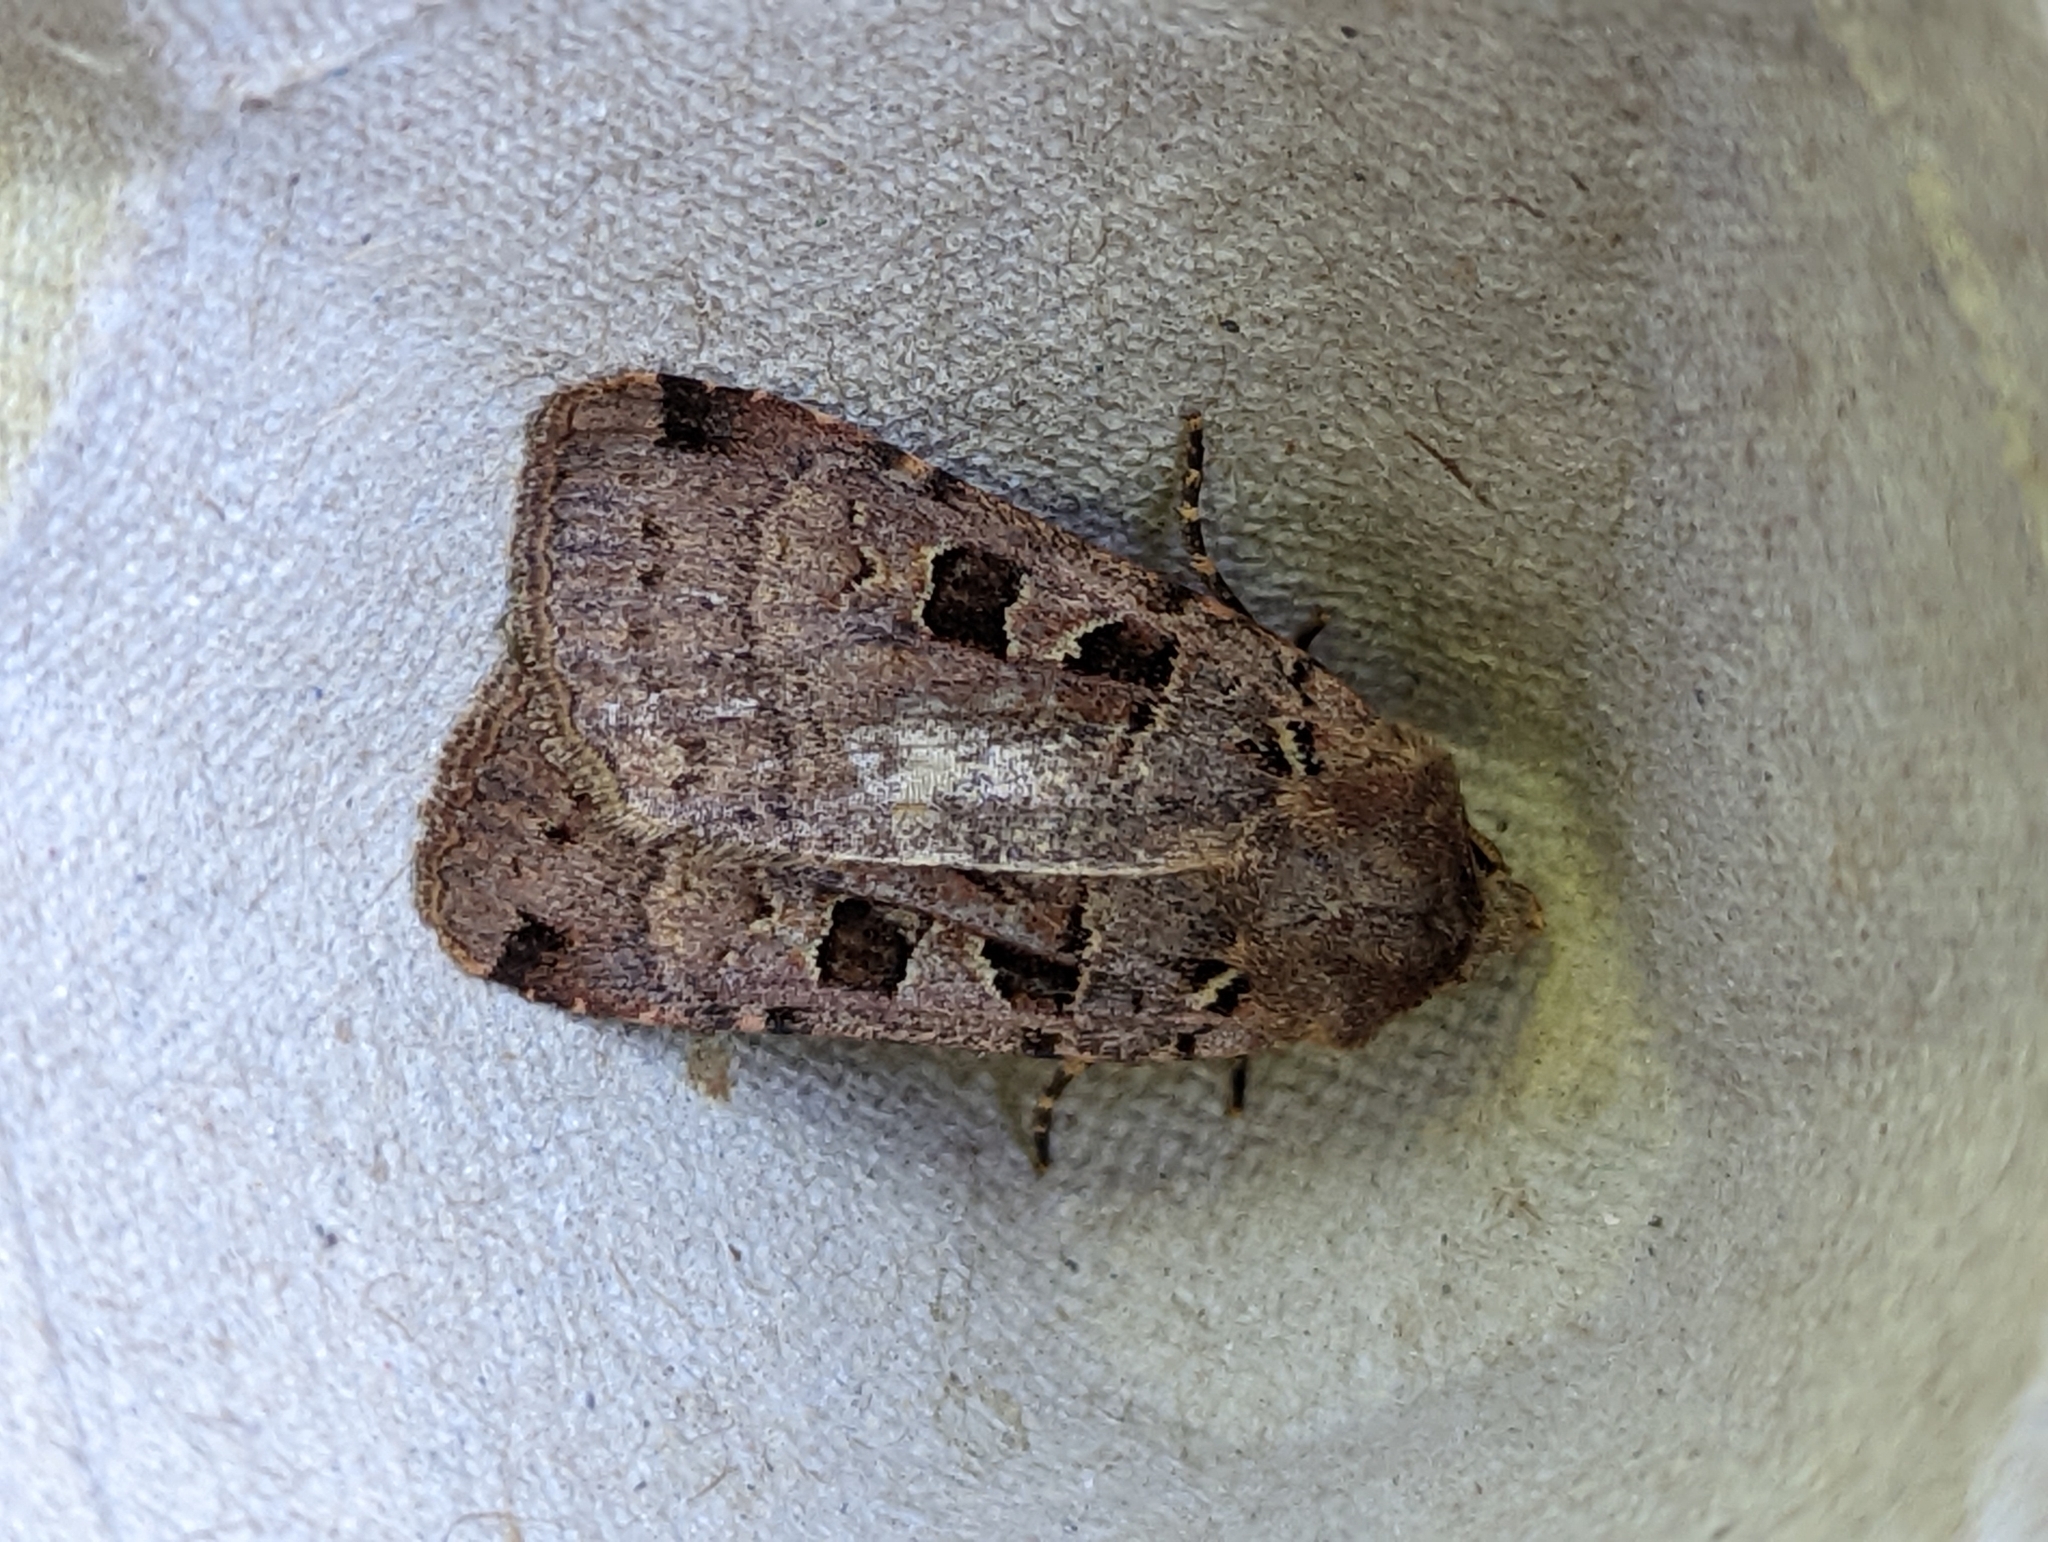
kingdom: Animalia
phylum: Arthropoda
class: Insecta
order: Lepidoptera
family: Noctuidae
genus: Xestia
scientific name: Xestia triangulum
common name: Double square-spot
